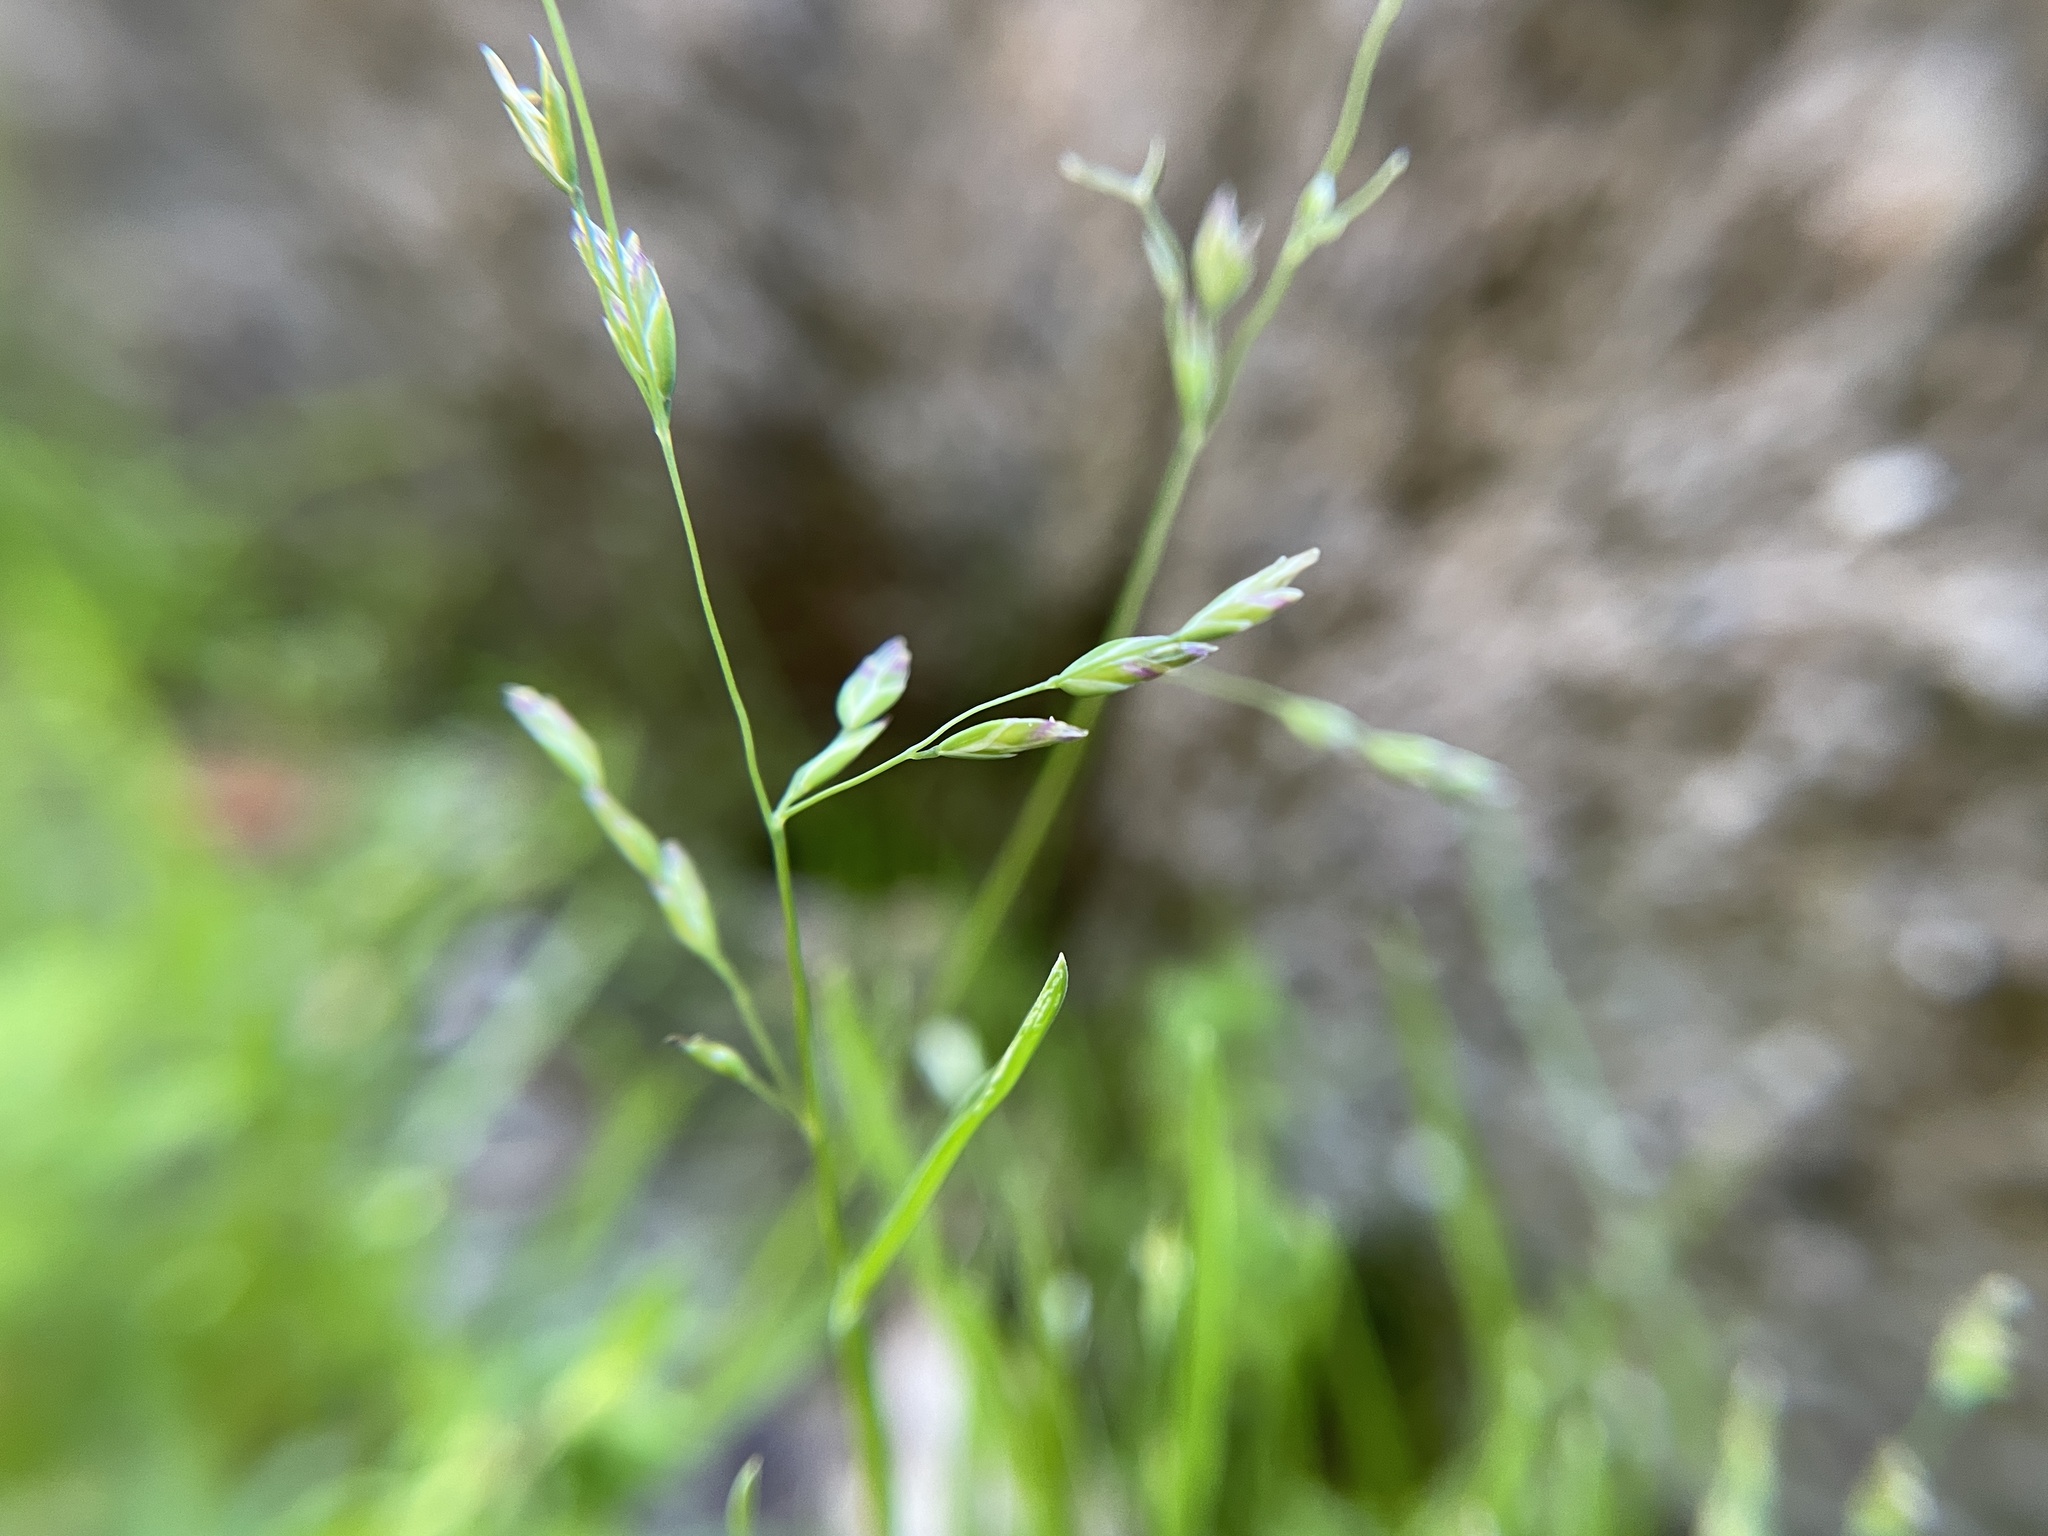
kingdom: Plantae
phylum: Tracheophyta
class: Liliopsida
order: Poales
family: Poaceae
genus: Poa
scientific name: Poa annua
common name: Annual bluegrass
